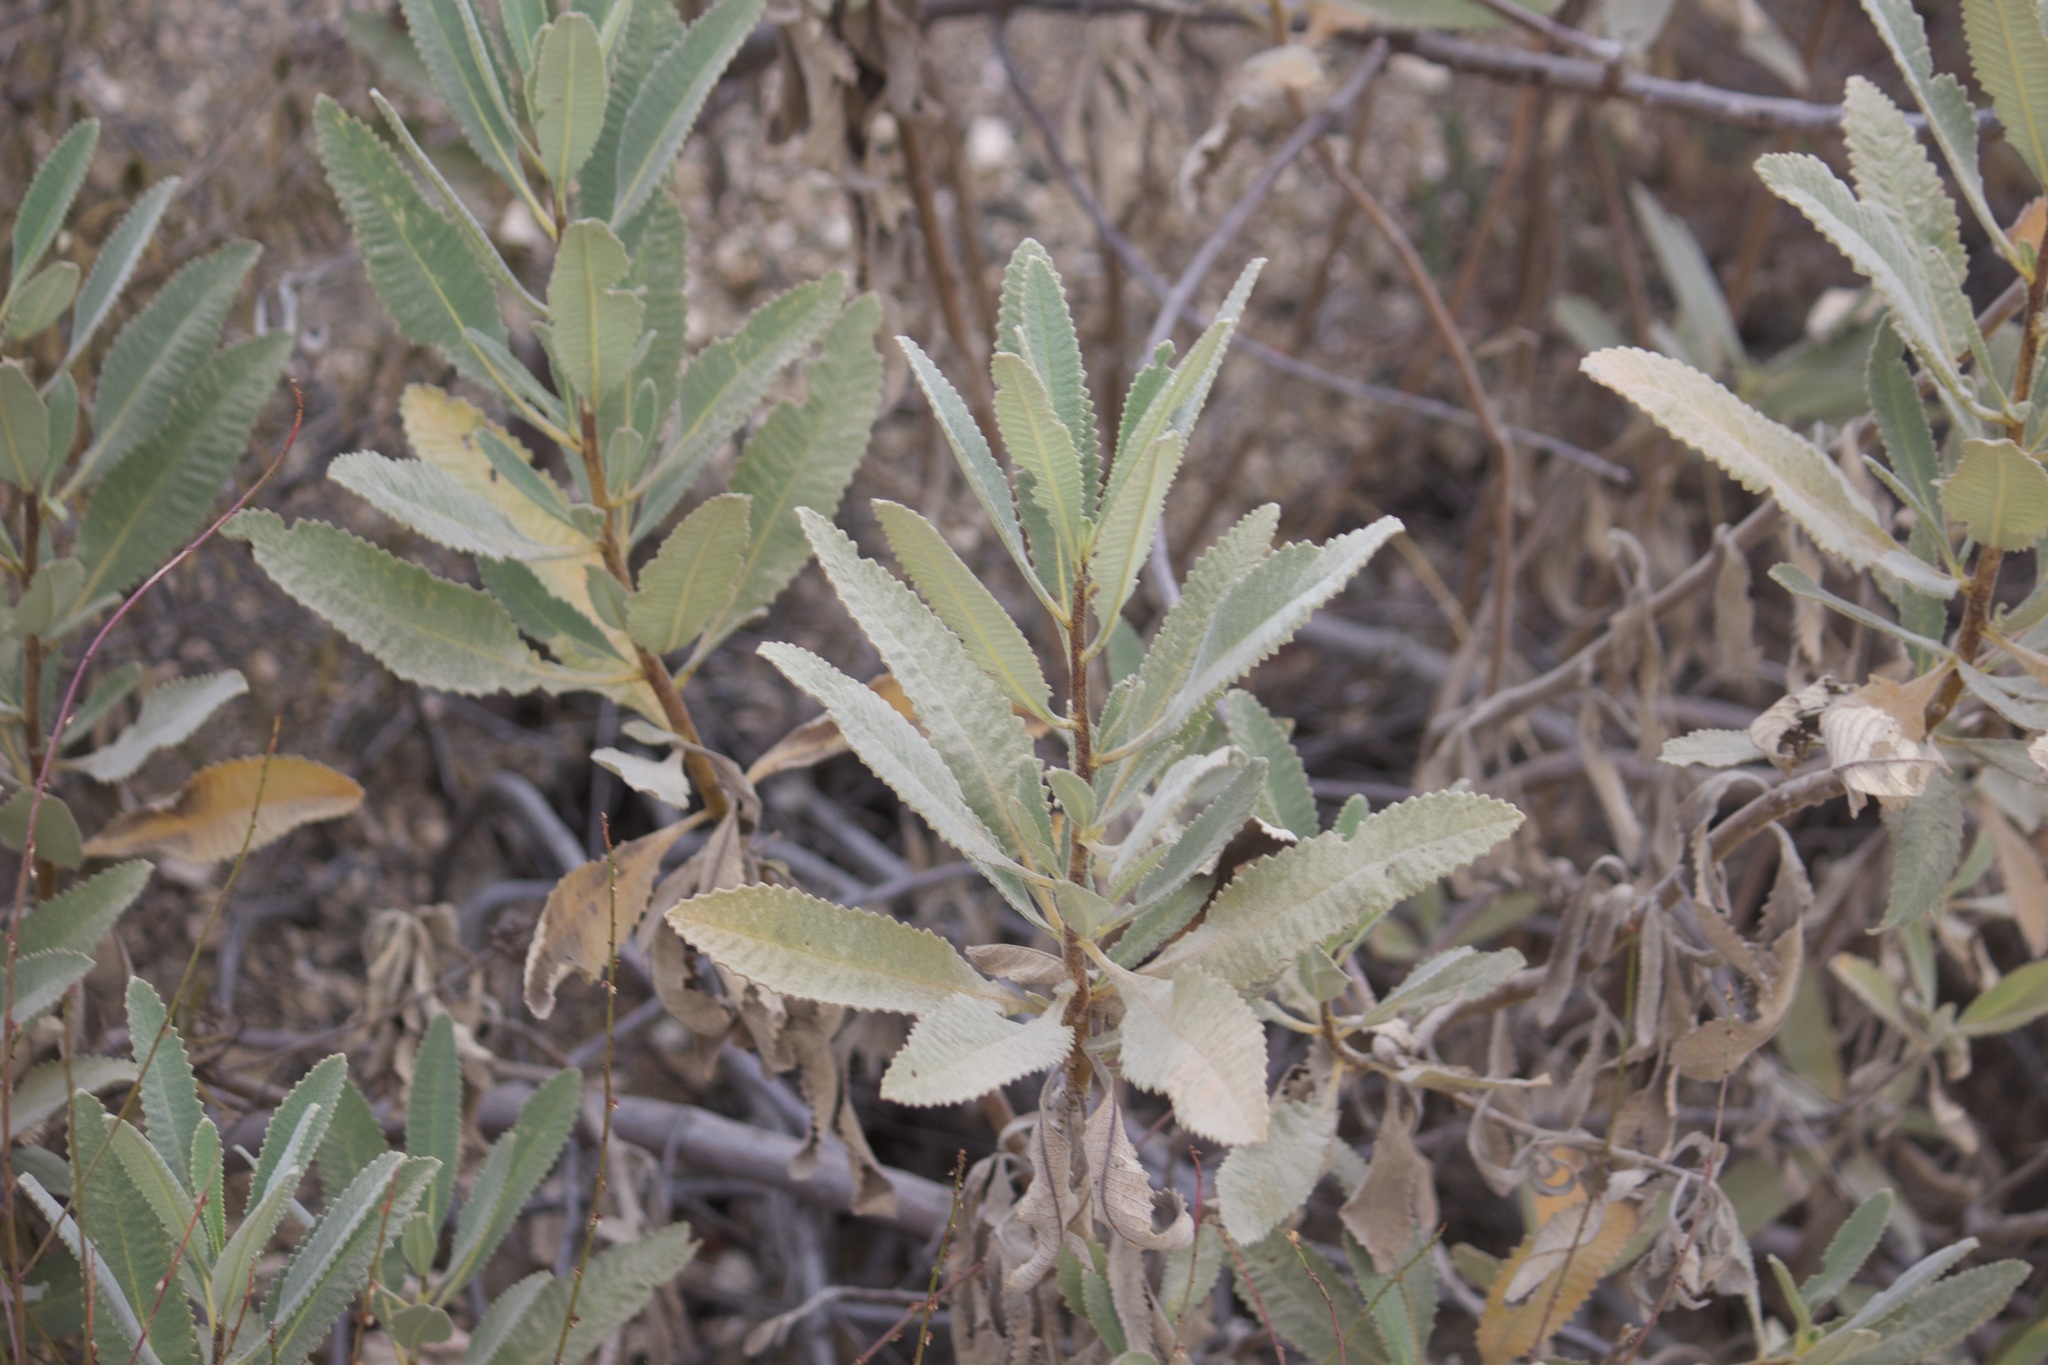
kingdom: Plantae
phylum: Tracheophyta
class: Magnoliopsida
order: Boraginales
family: Namaceae
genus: Eriodictyon
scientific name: Eriodictyon crassifolium
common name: Thick-leaf yerba-santa
